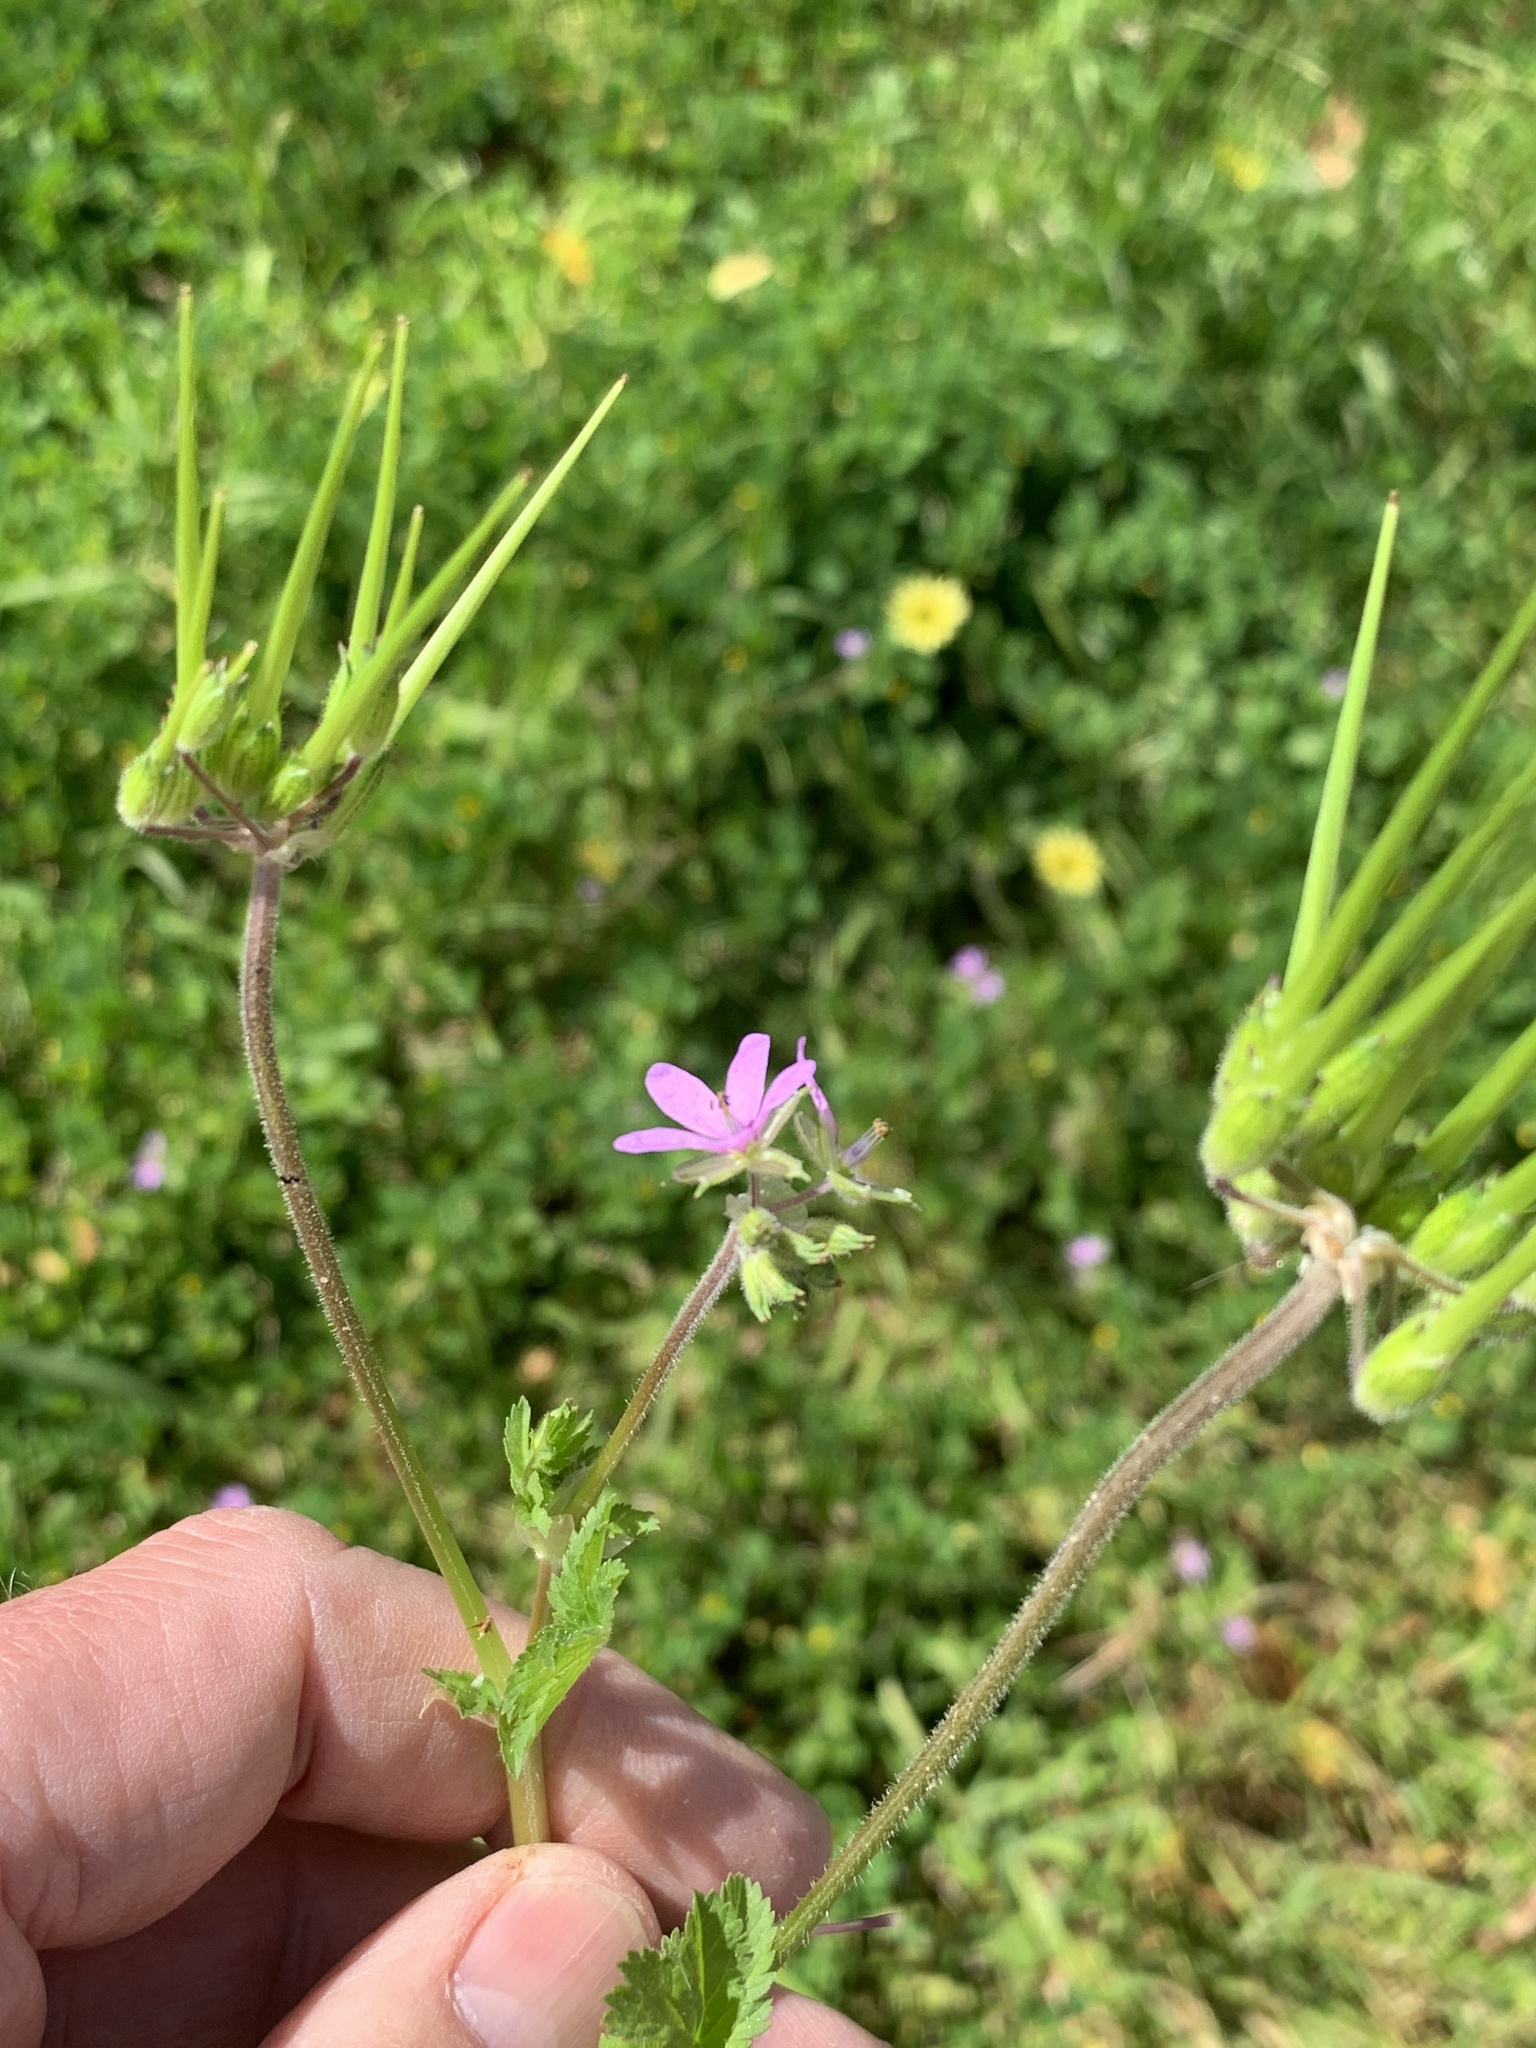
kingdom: Plantae
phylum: Tracheophyta
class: Magnoliopsida
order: Geraniales
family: Geraniaceae
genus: Erodium
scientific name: Erodium moschatum
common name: Musk stork's-bill
